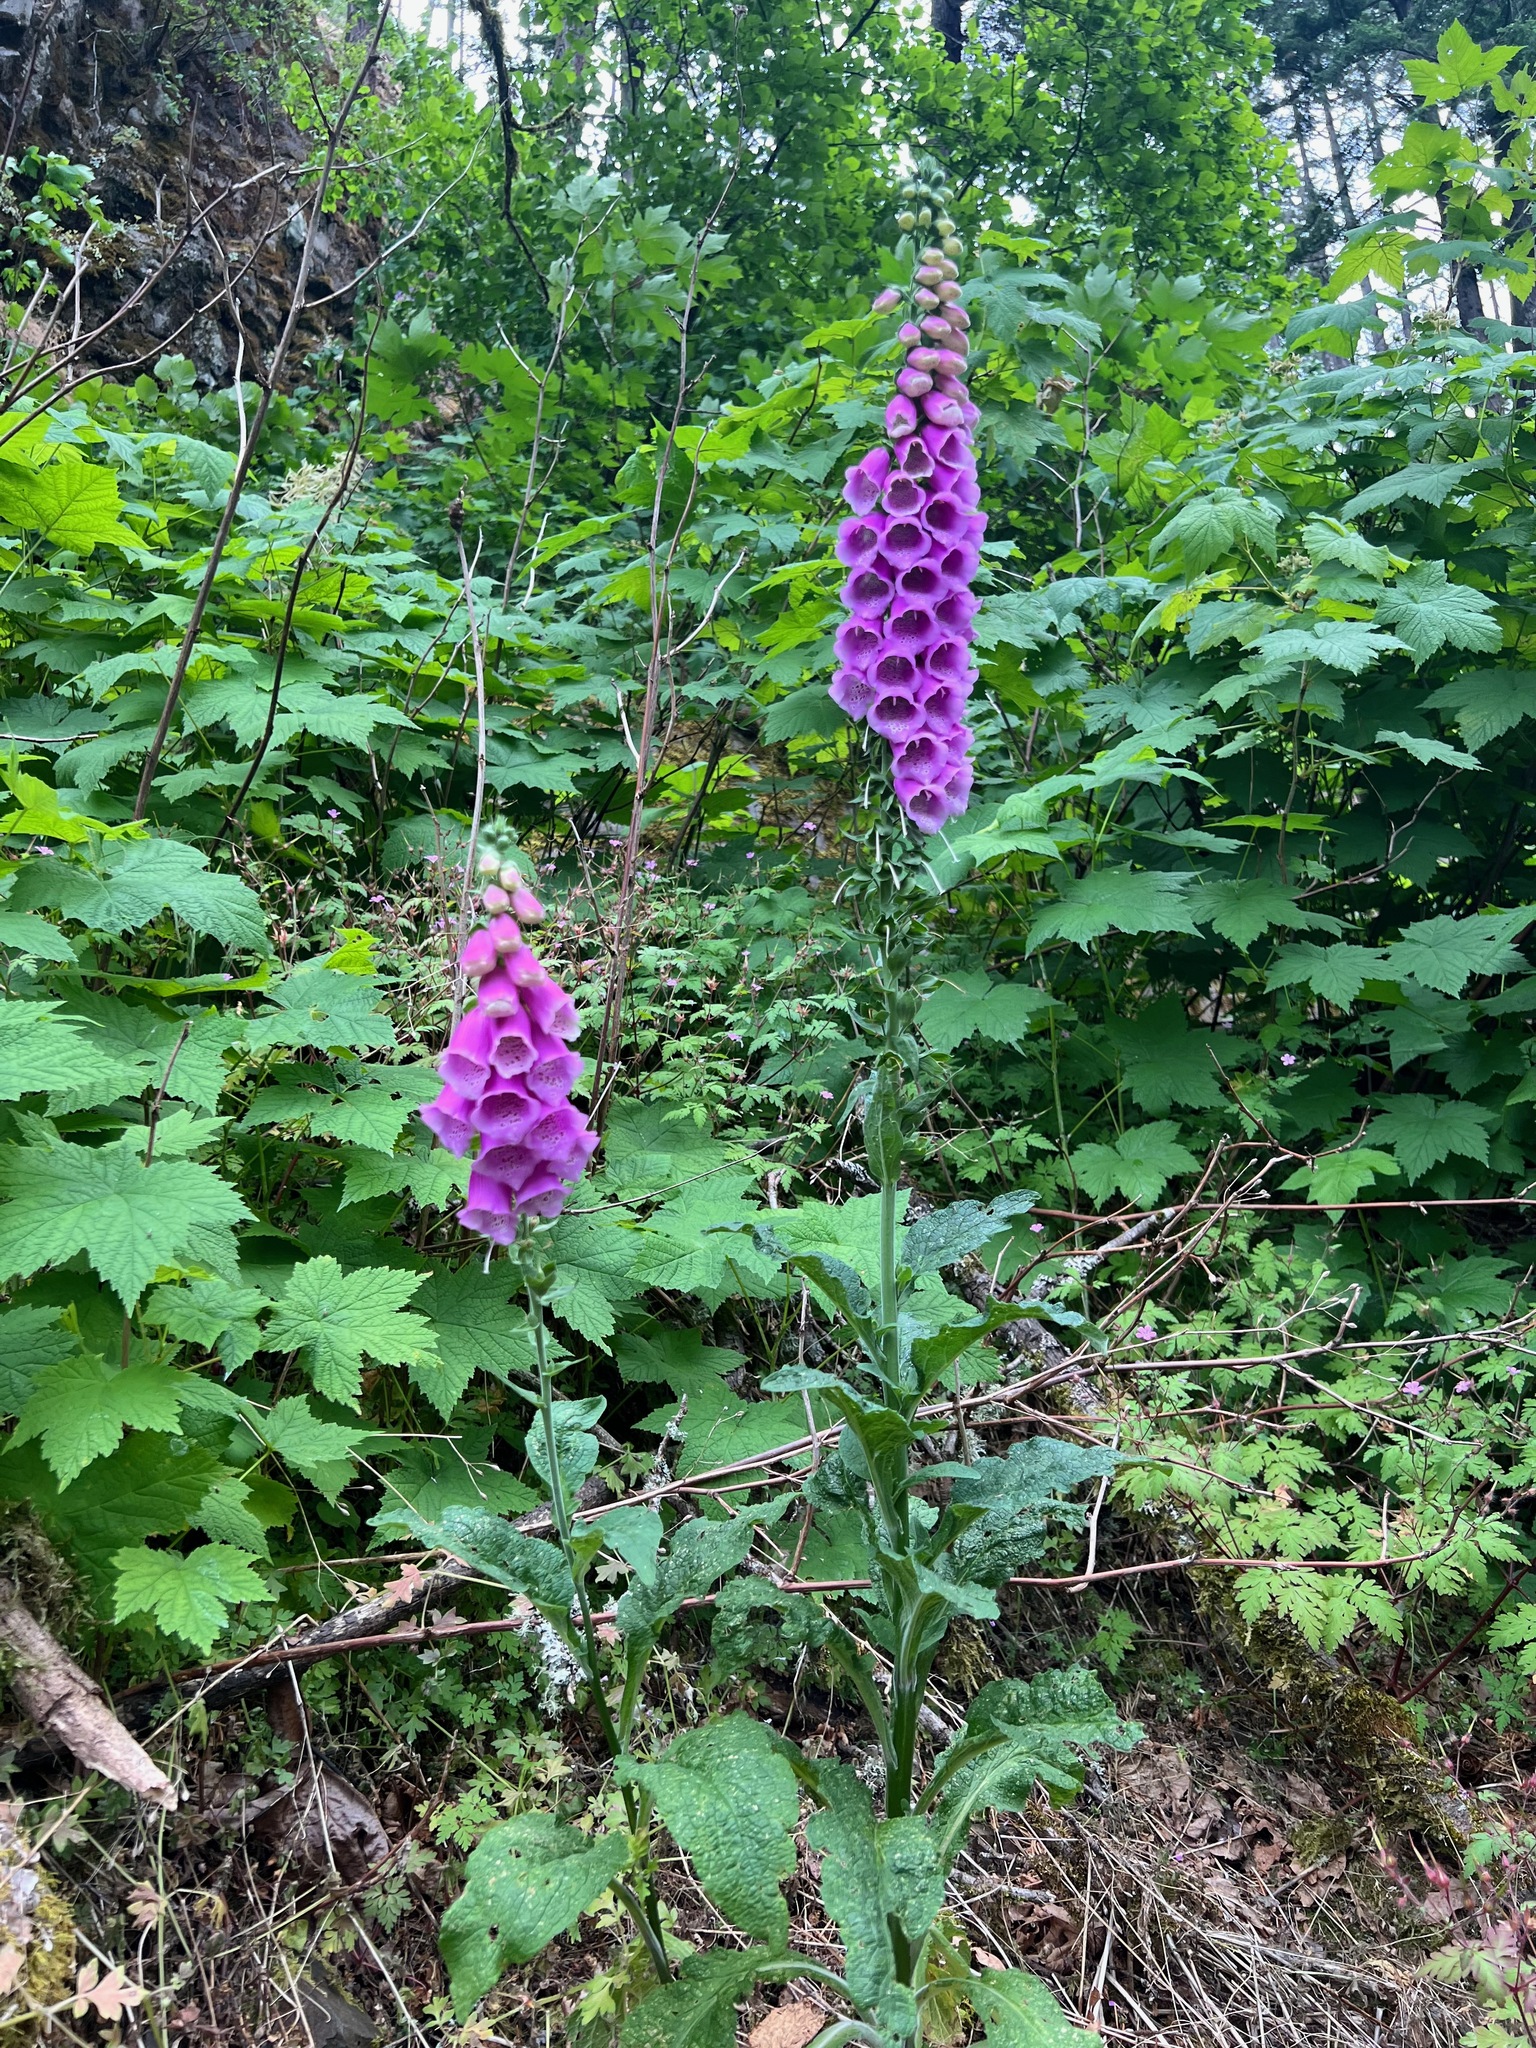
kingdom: Plantae
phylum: Tracheophyta
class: Magnoliopsida
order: Lamiales
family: Plantaginaceae
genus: Digitalis
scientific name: Digitalis purpurea
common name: Foxglove
